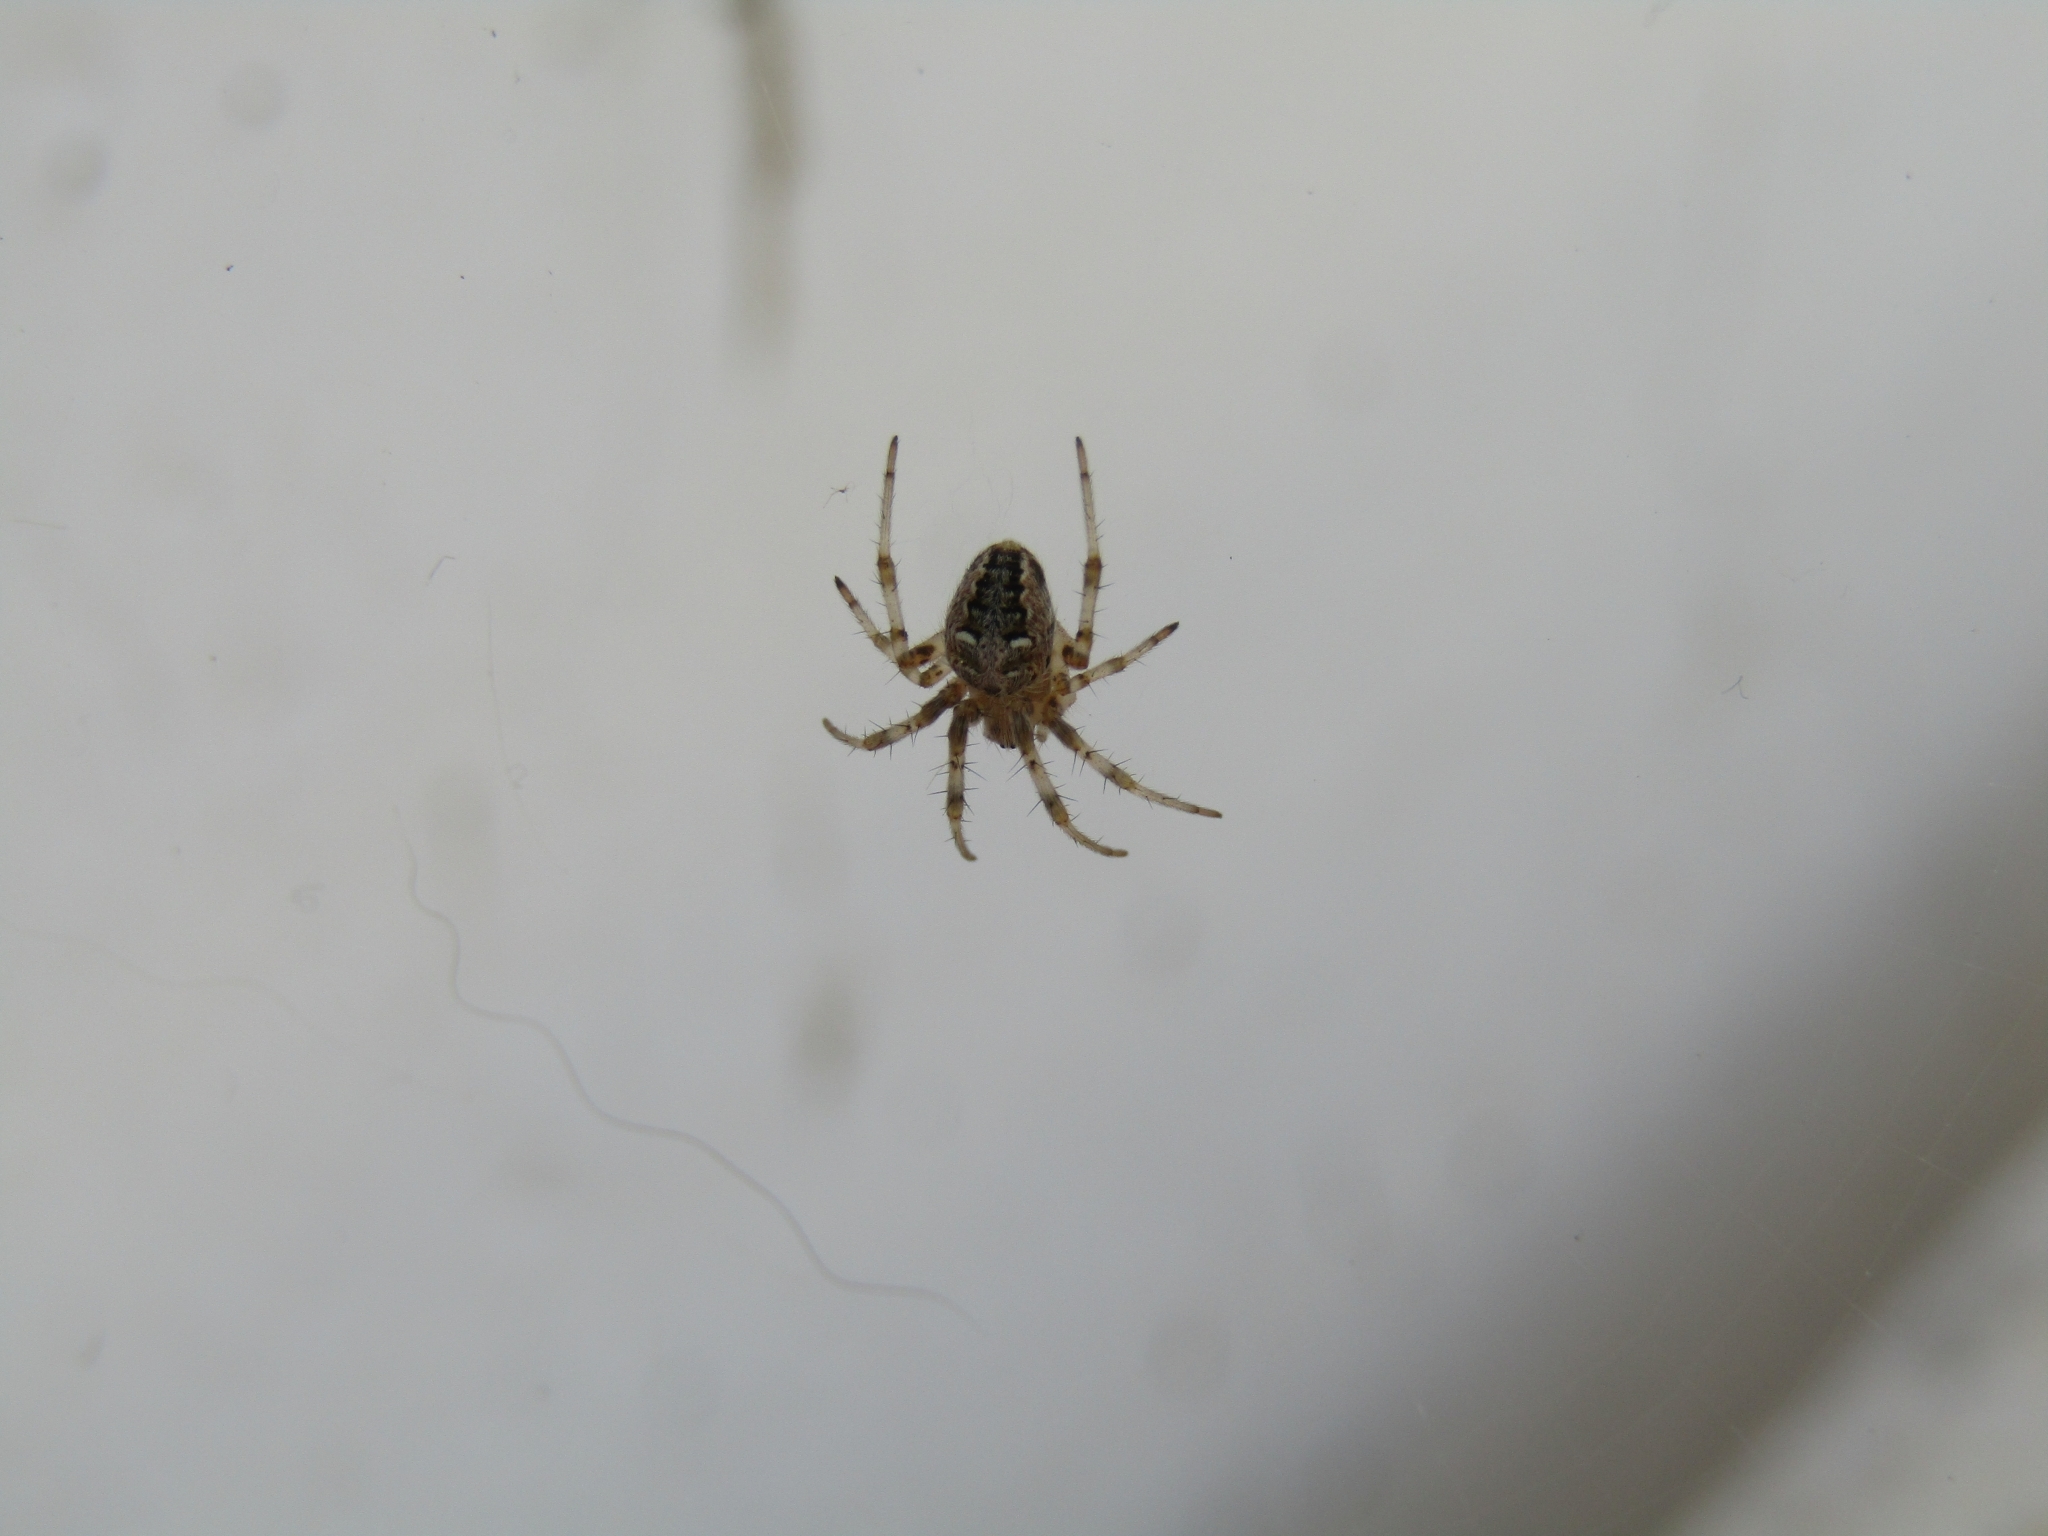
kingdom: Animalia
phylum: Arthropoda
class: Arachnida
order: Araneae
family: Araneidae
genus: Metepeira
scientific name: Metepeira
